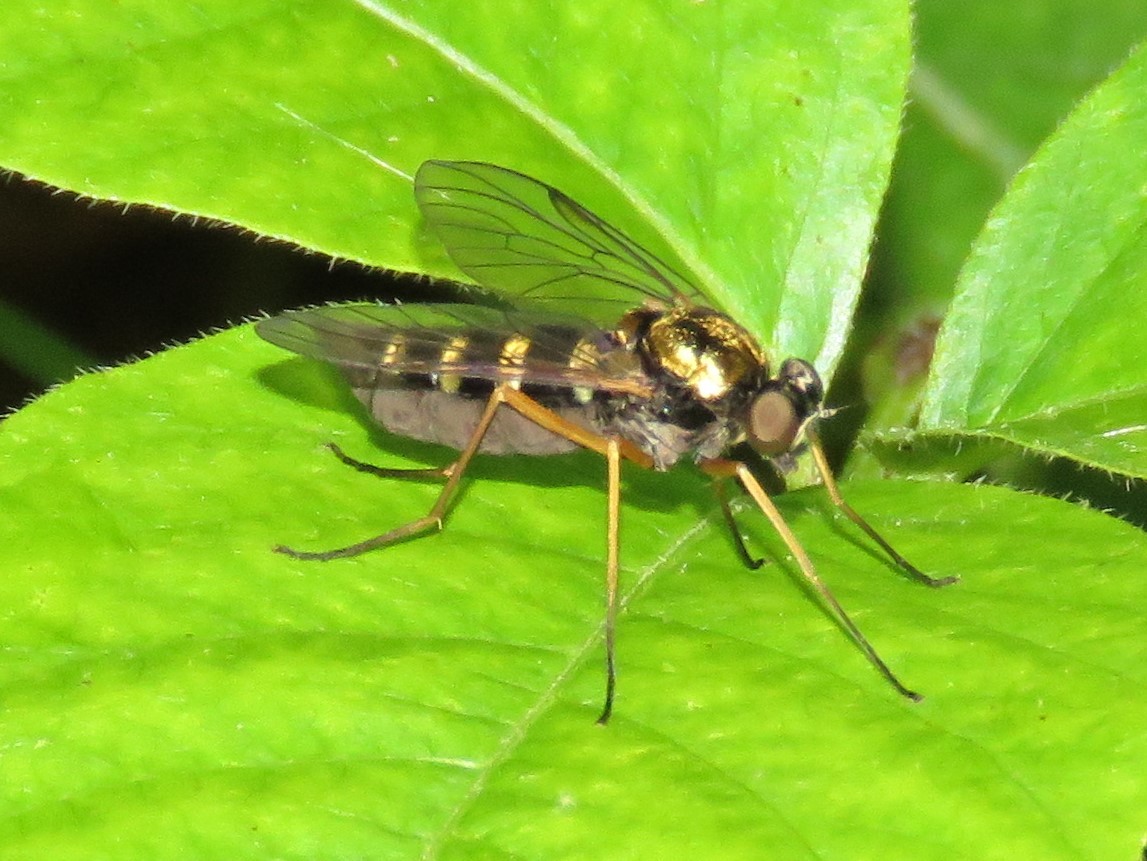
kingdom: Animalia
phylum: Arthropoda
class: Insecta
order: Diptera
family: Rhagionidae
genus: Chrysopilus
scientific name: Chrysopilus ornatus
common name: Ornate snipe fly
